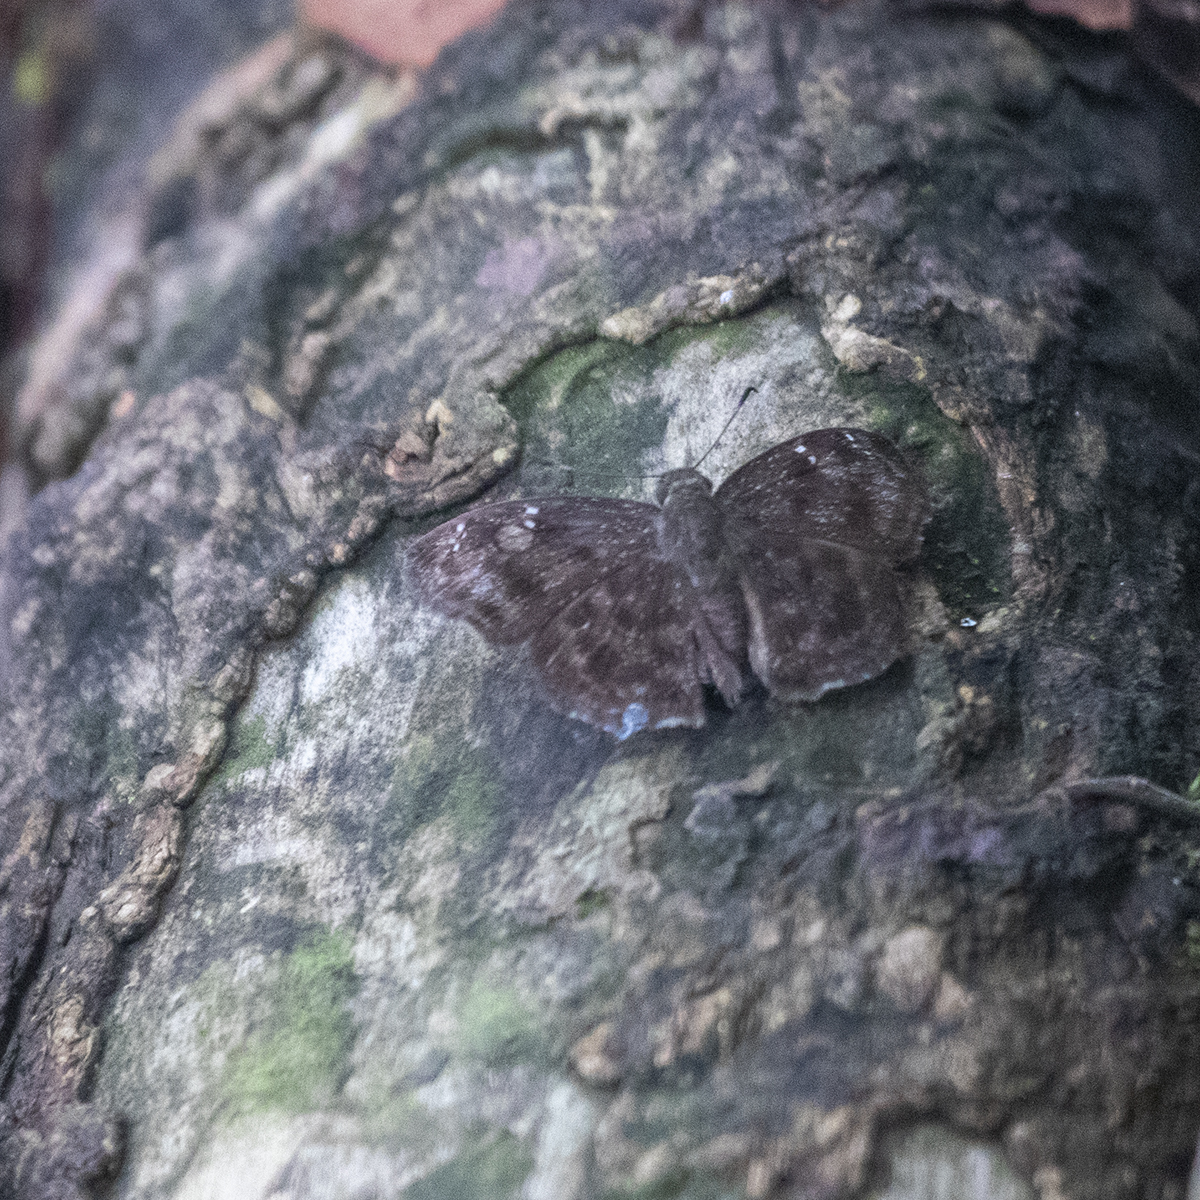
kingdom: Animalia
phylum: Arthropoda
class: Insecta
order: Lepidoptera
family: Hesperiidae
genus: Sarangesa
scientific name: Sarangesa dasahara
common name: Common small flat
